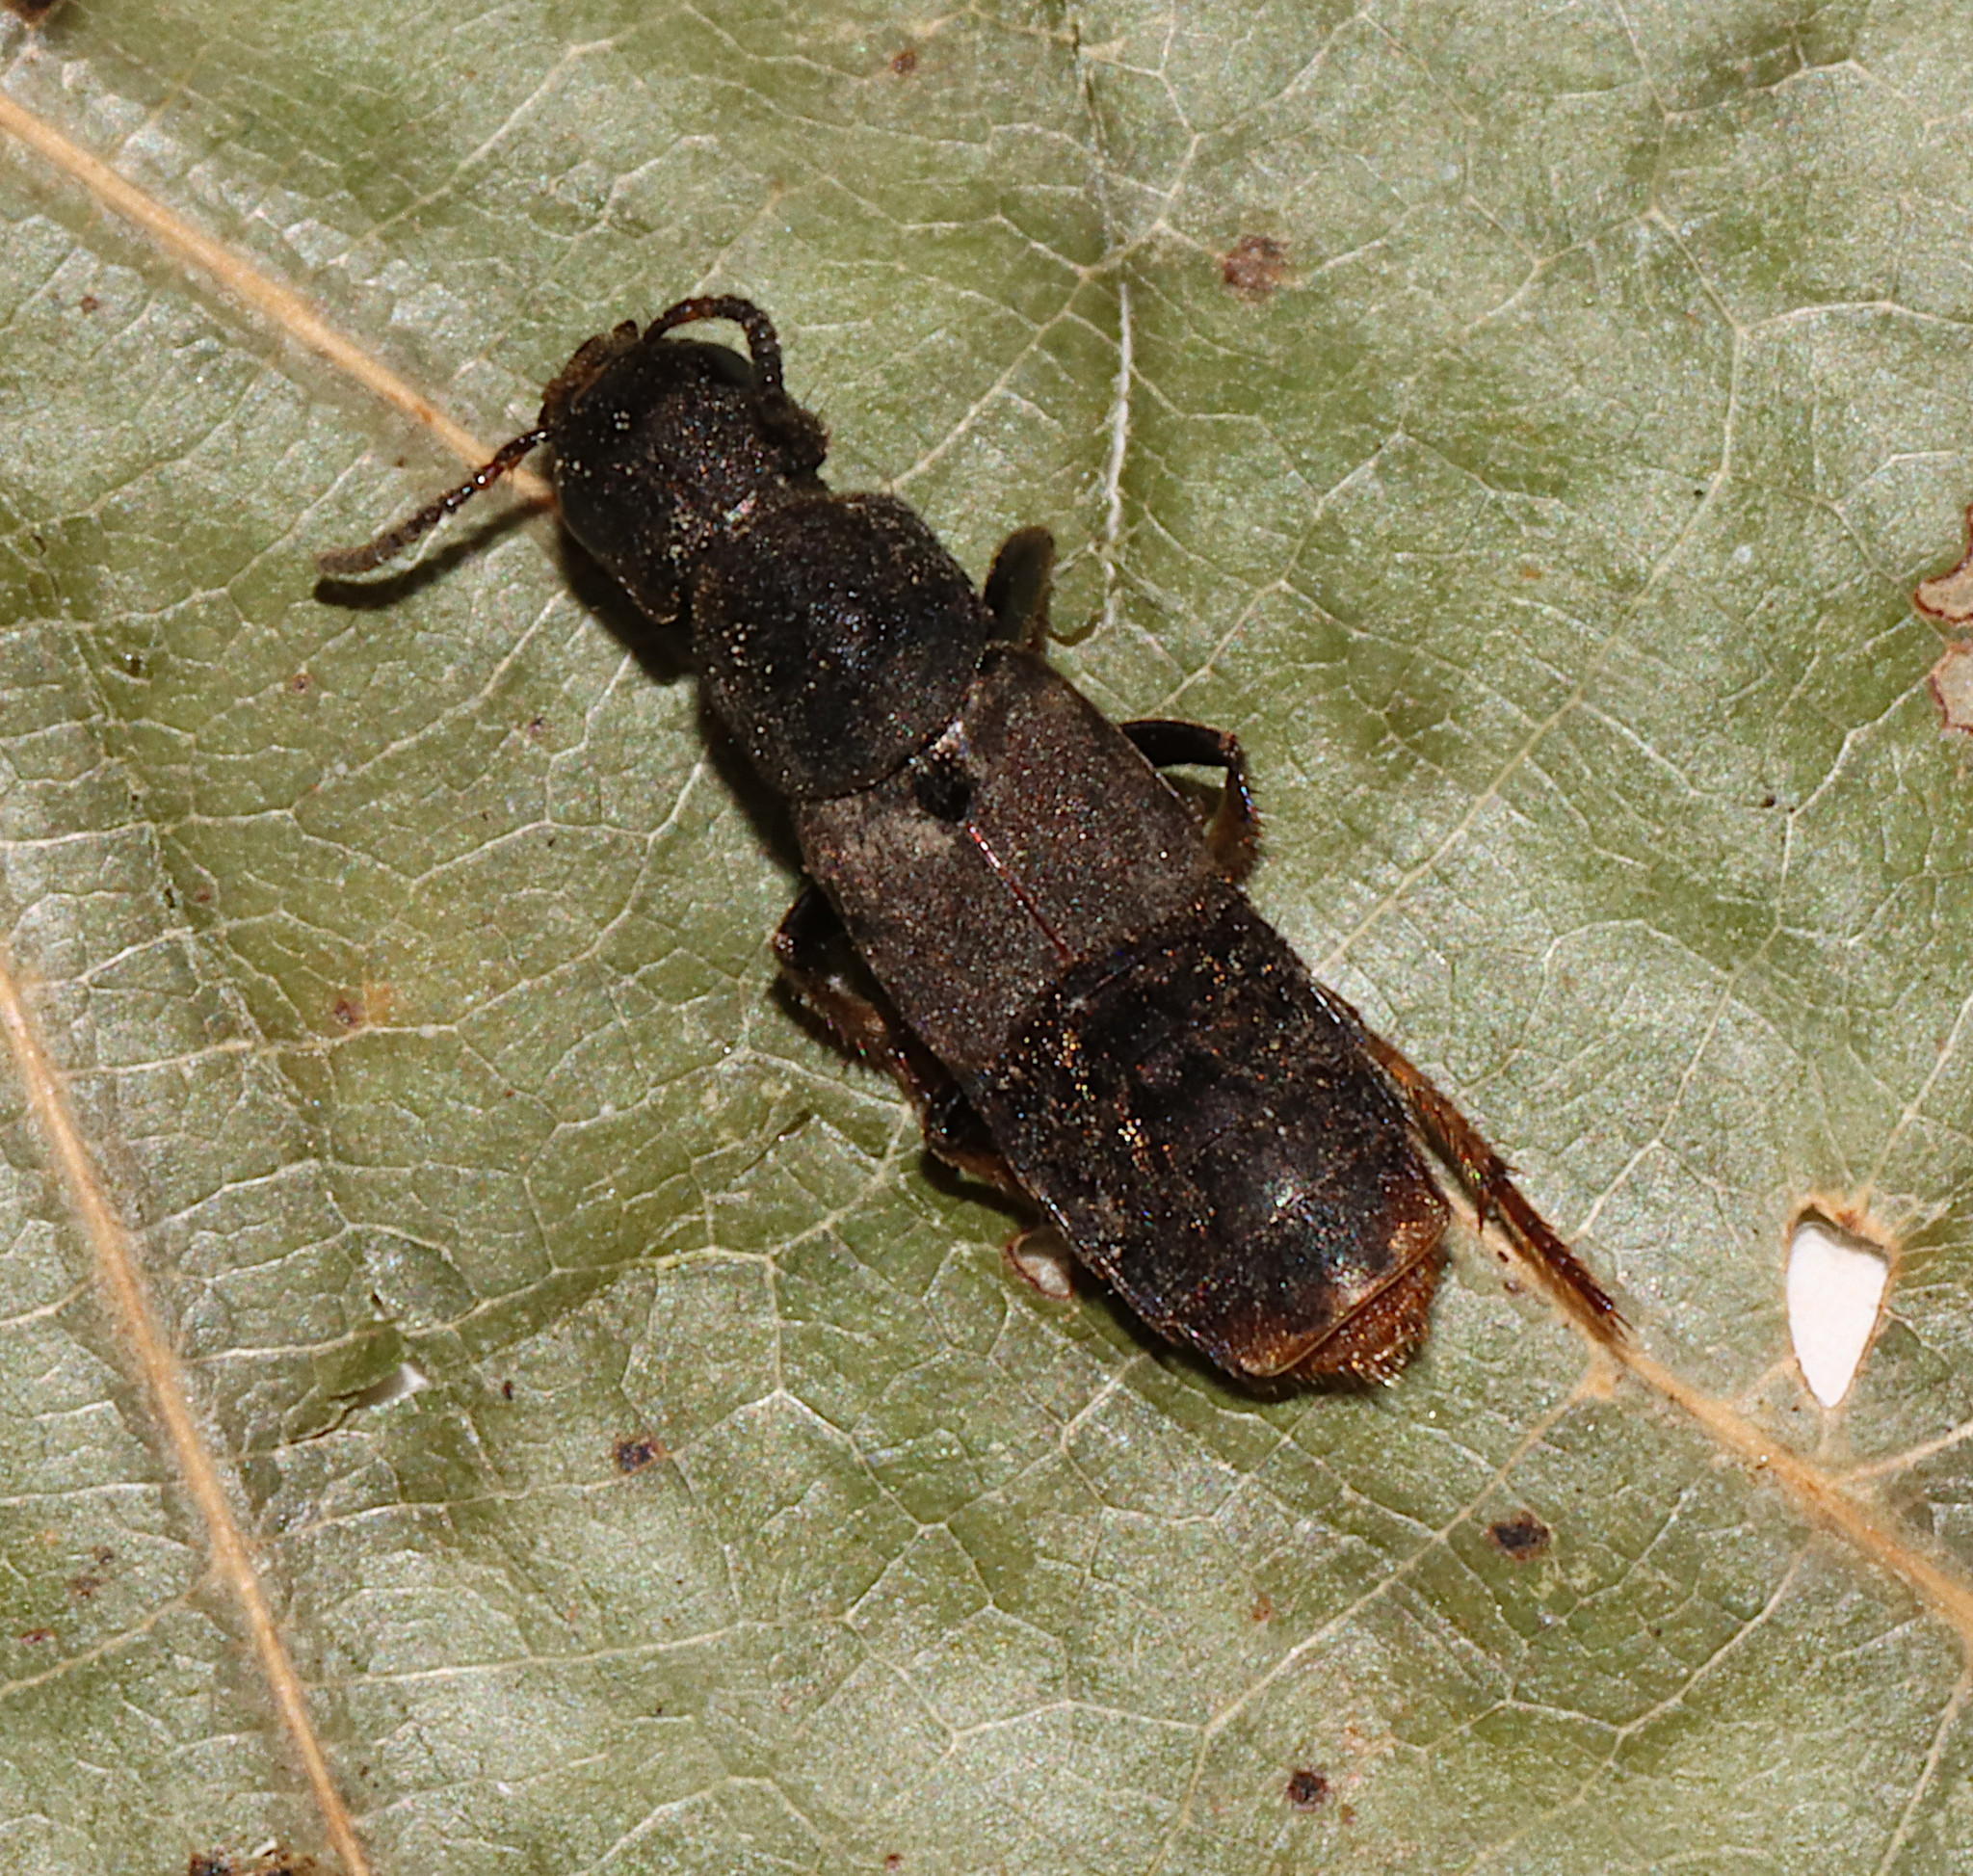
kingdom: Animalia
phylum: Arthropoda
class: Insecta
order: Coleoptera
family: Staphylinidae
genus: Platydracus
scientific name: Platydracus mysticus
